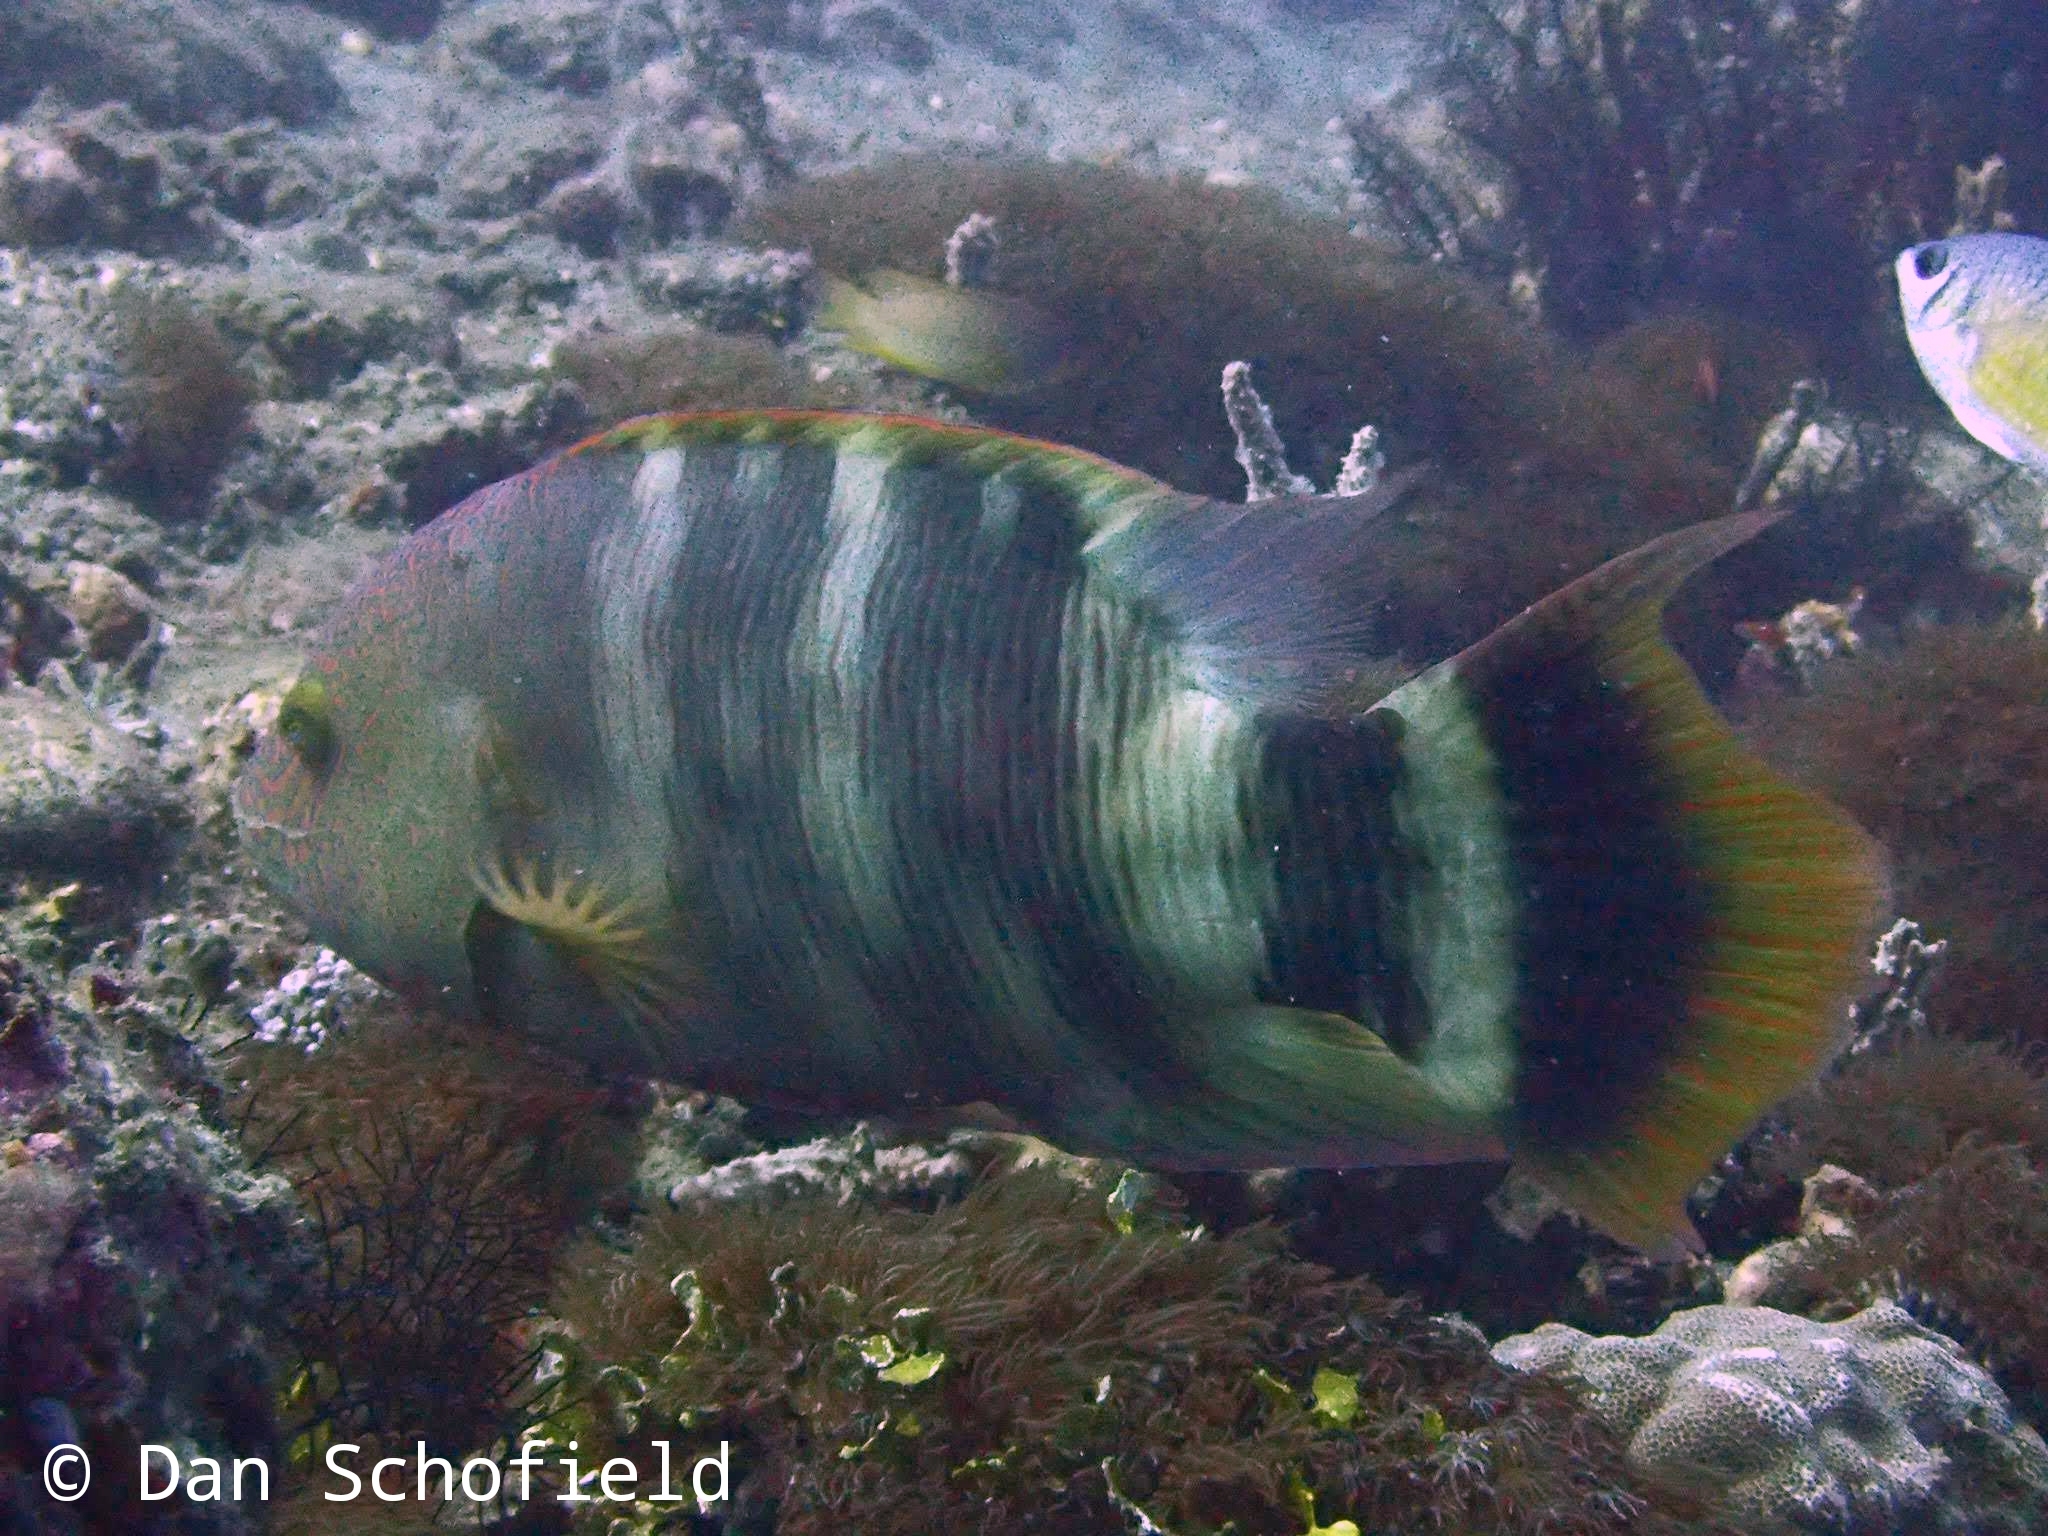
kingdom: Animalia
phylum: Chordata
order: Perciformes
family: Labridae
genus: Cheilinus
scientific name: Cheilinus trilobatus
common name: Tripletail maori wrasse
